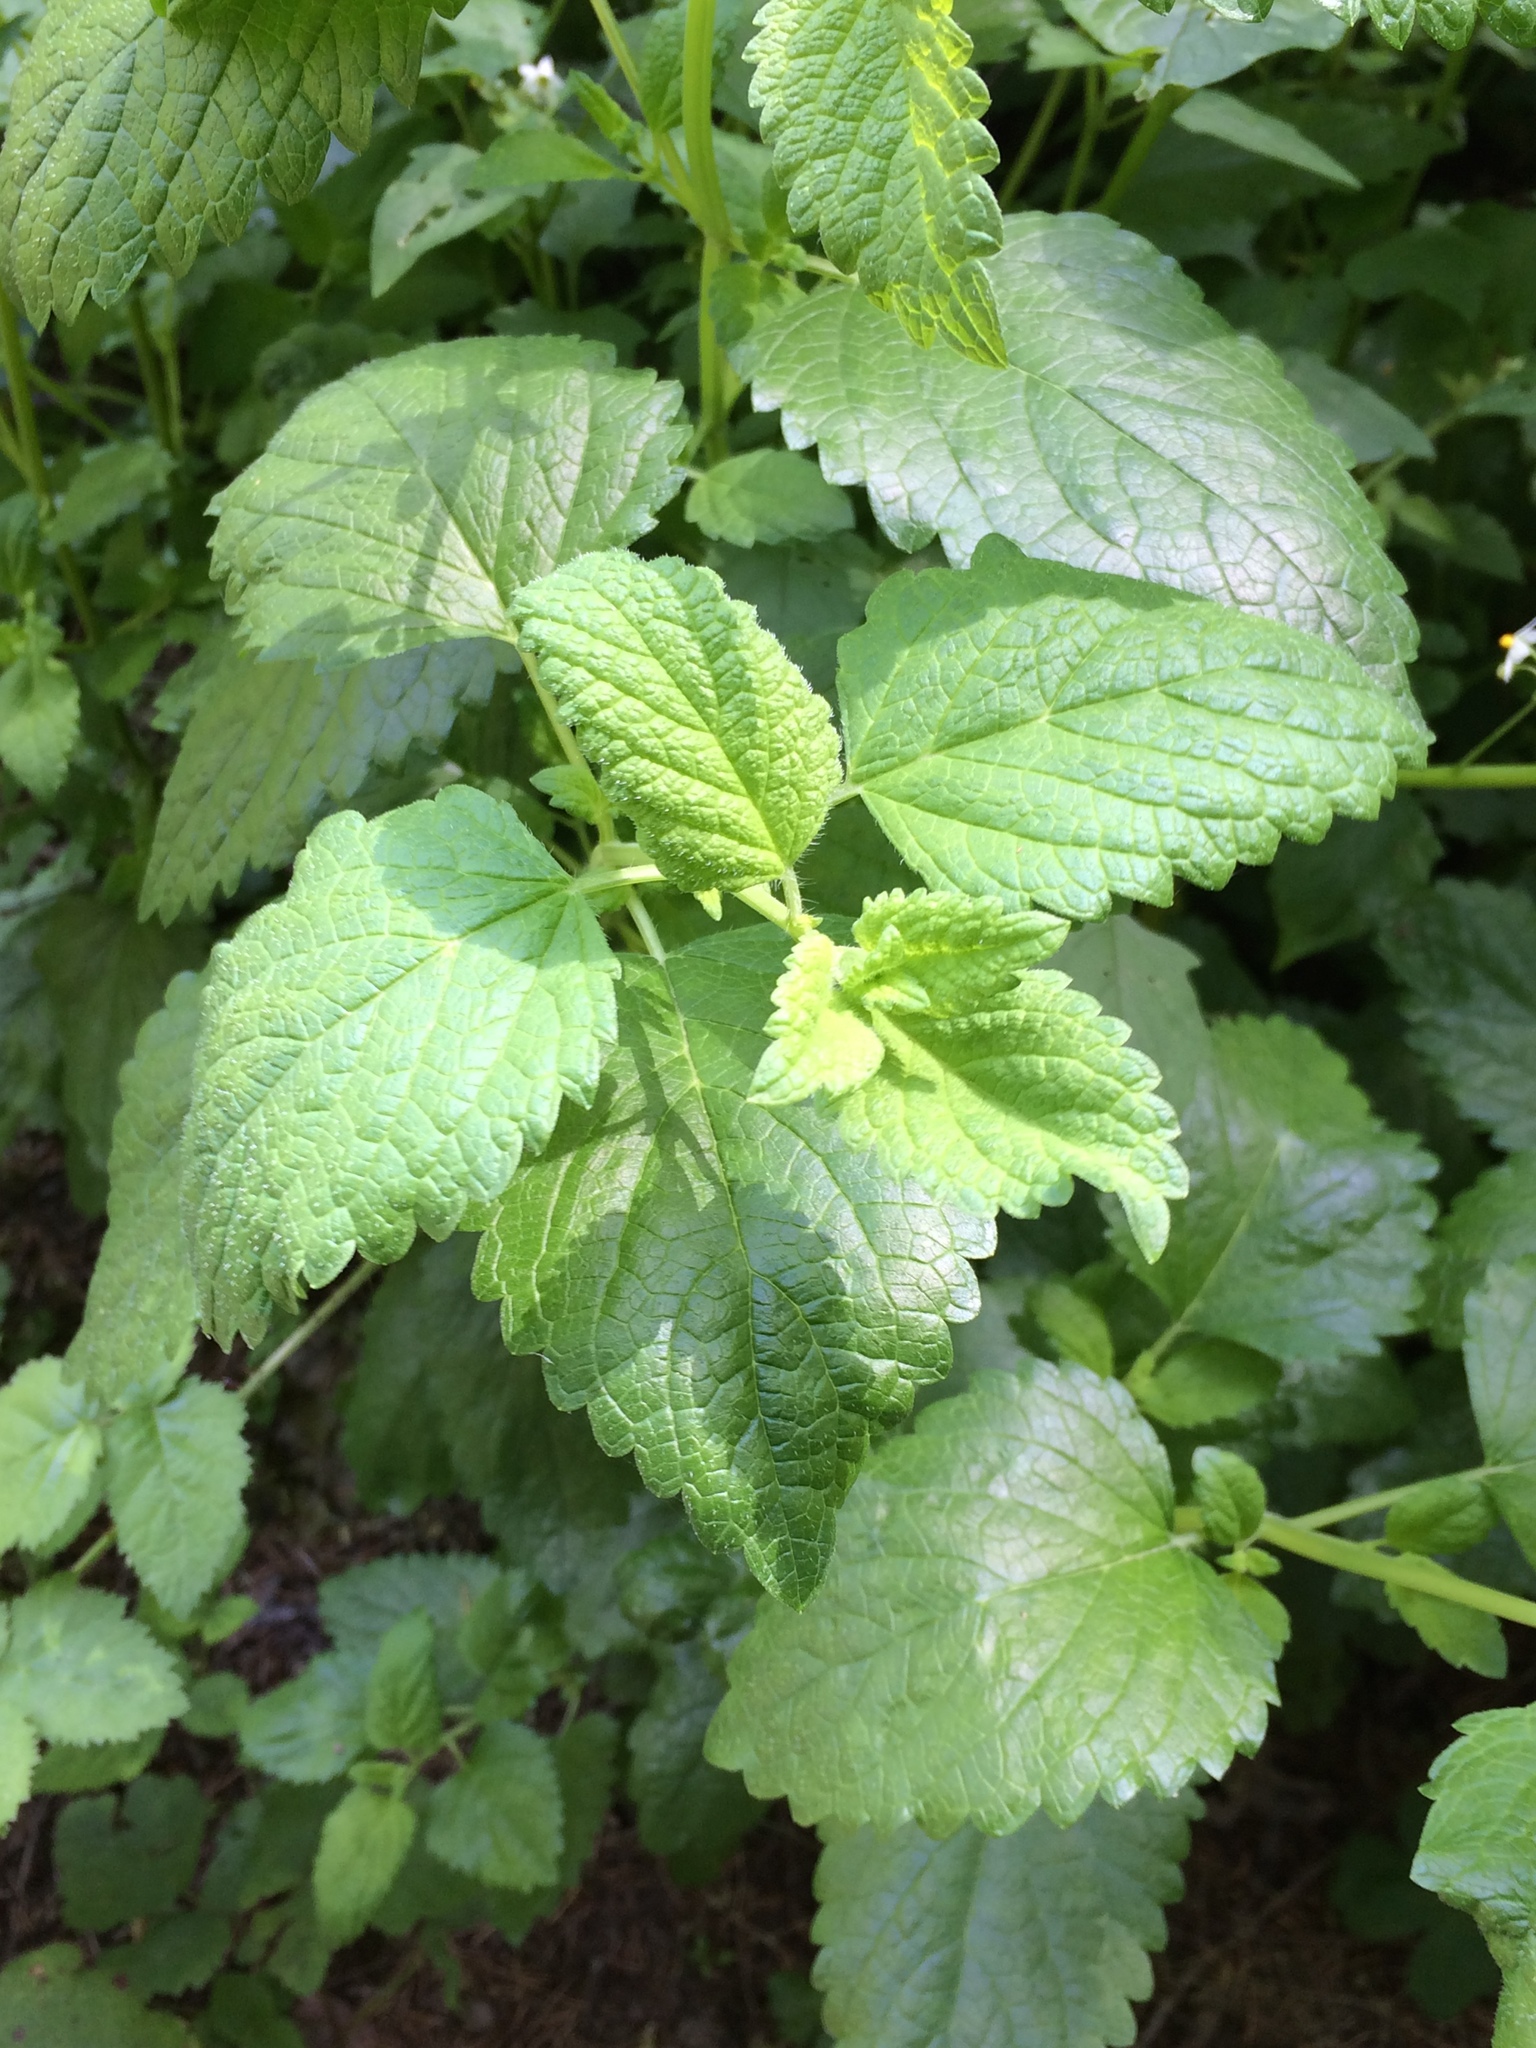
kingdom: Plantae
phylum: Tracheophyta
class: Magnoliopsida
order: Lamiales
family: Lamiaceae
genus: Melissa
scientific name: Melissa officinalis
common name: Balm
